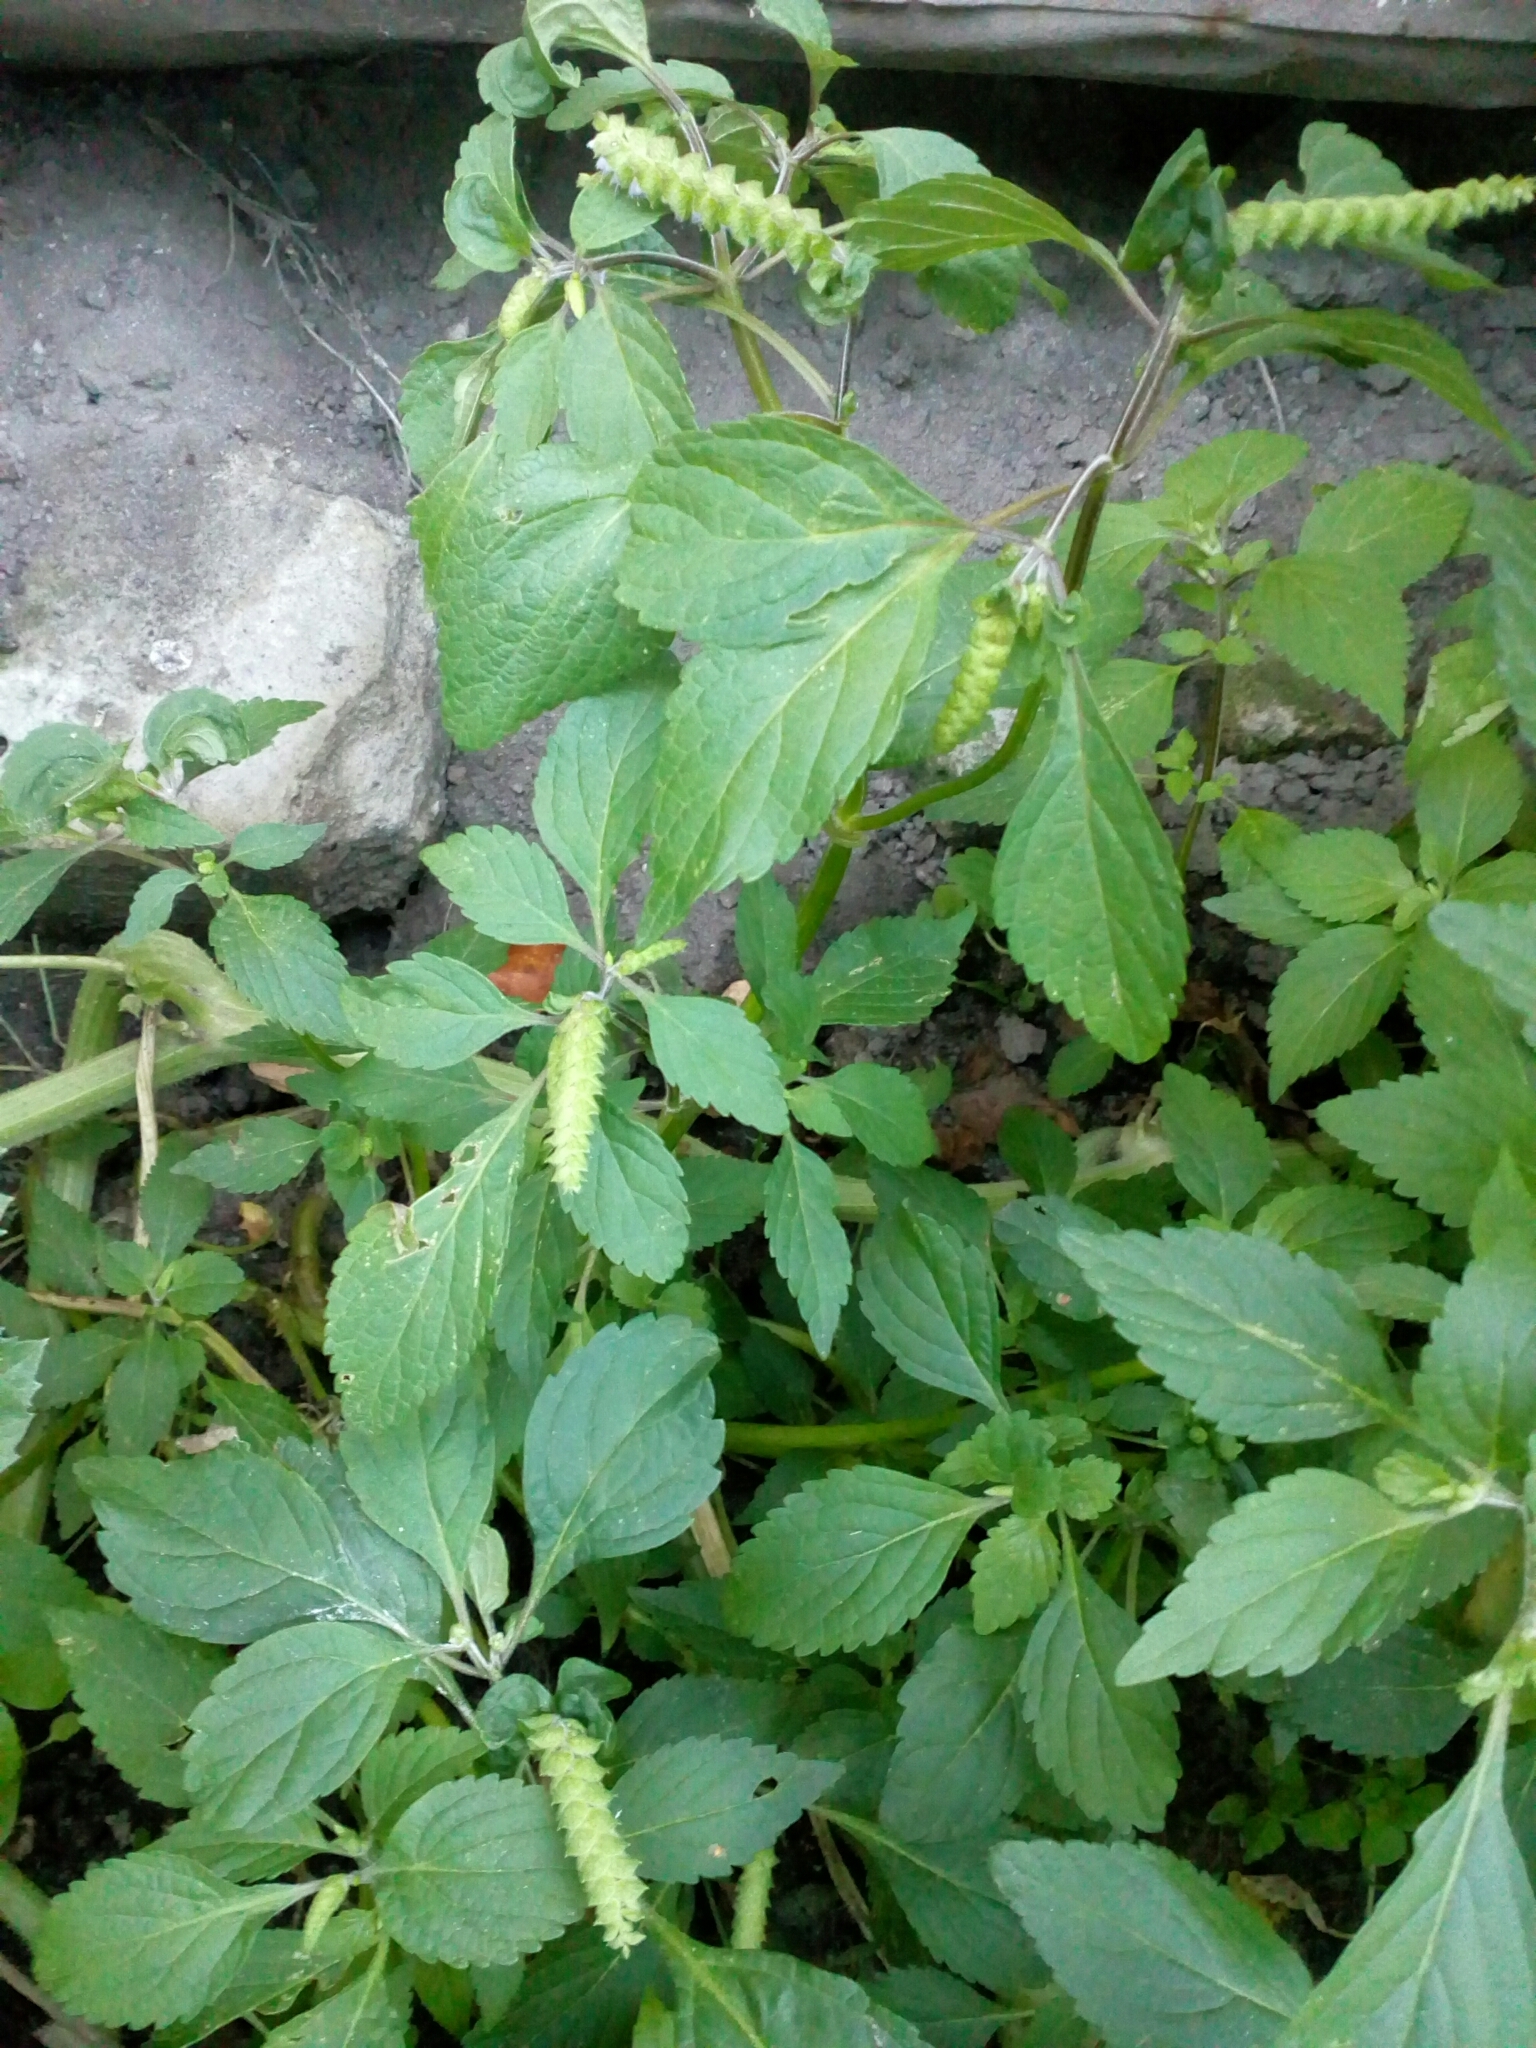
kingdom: Plantae
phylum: Tracheophyta
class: Magnoliopsida
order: Lamiales
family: Lamiaceae
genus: Elsholtzia
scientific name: Elsholtzia ciliata
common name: Ciliate elsholtzia
